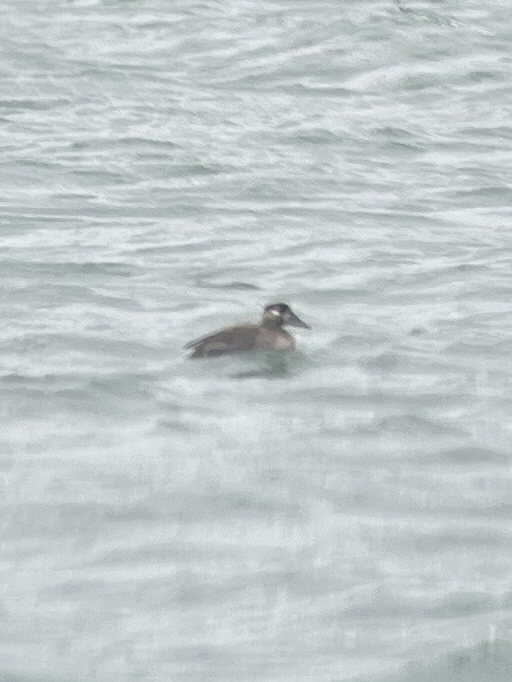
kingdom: Animalia
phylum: Chordata
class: Aves
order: Anseriformes
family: Anatidae
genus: Melanitta
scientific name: Melanitta perspicillata
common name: Surf scoter
